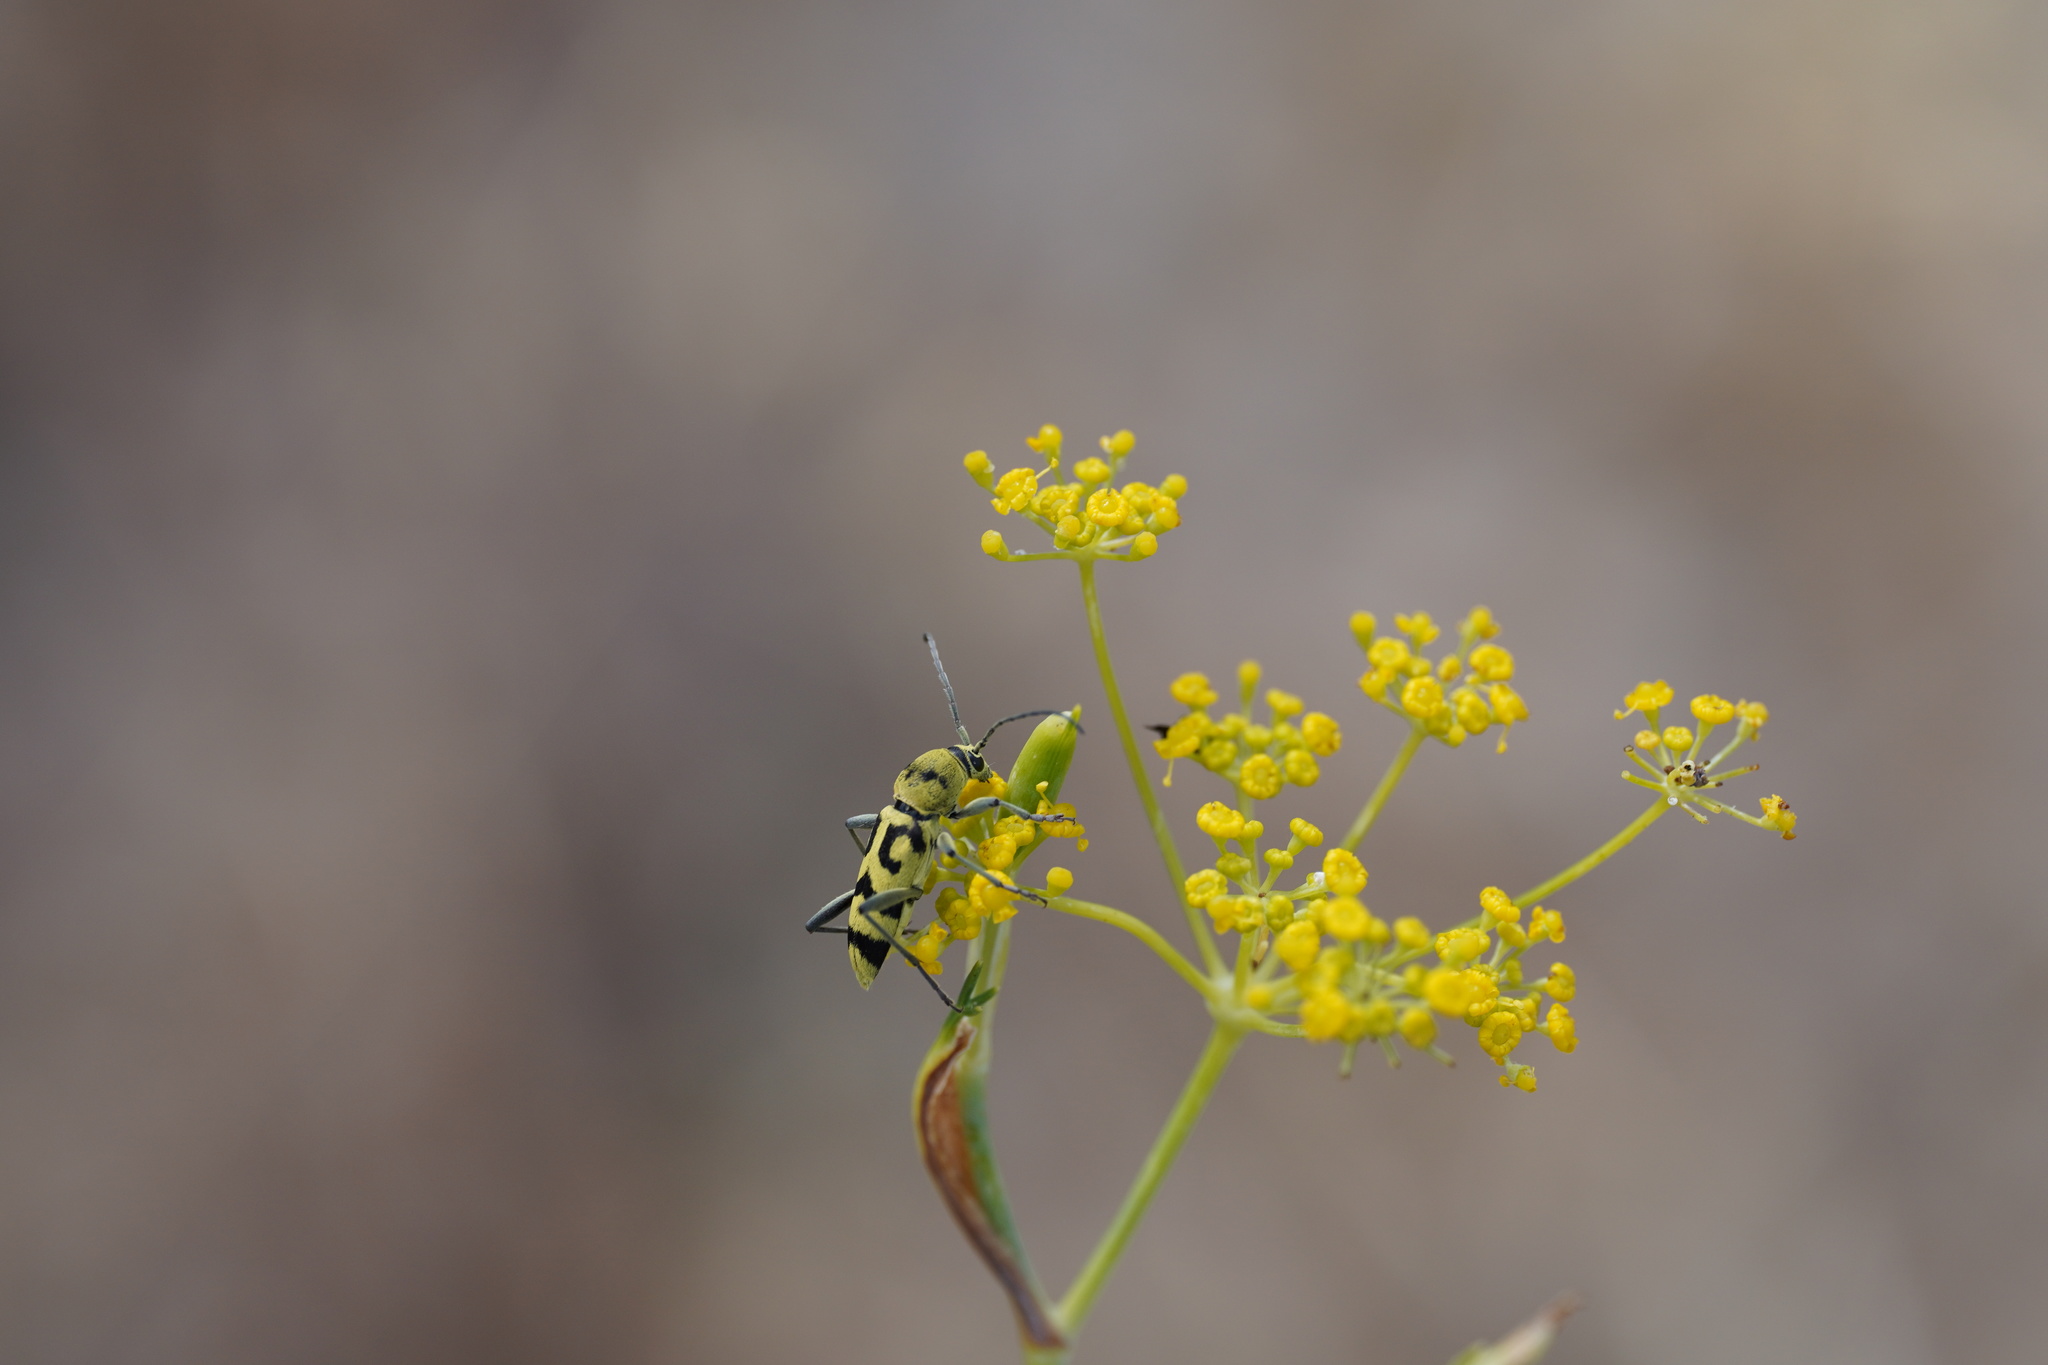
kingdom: Animalia
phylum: Arthropoda
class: Insecta
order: Coleoptera
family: Cerambycidae
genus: Chlorophorus
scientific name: Chlorophorus varius
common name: Grape wood borer
